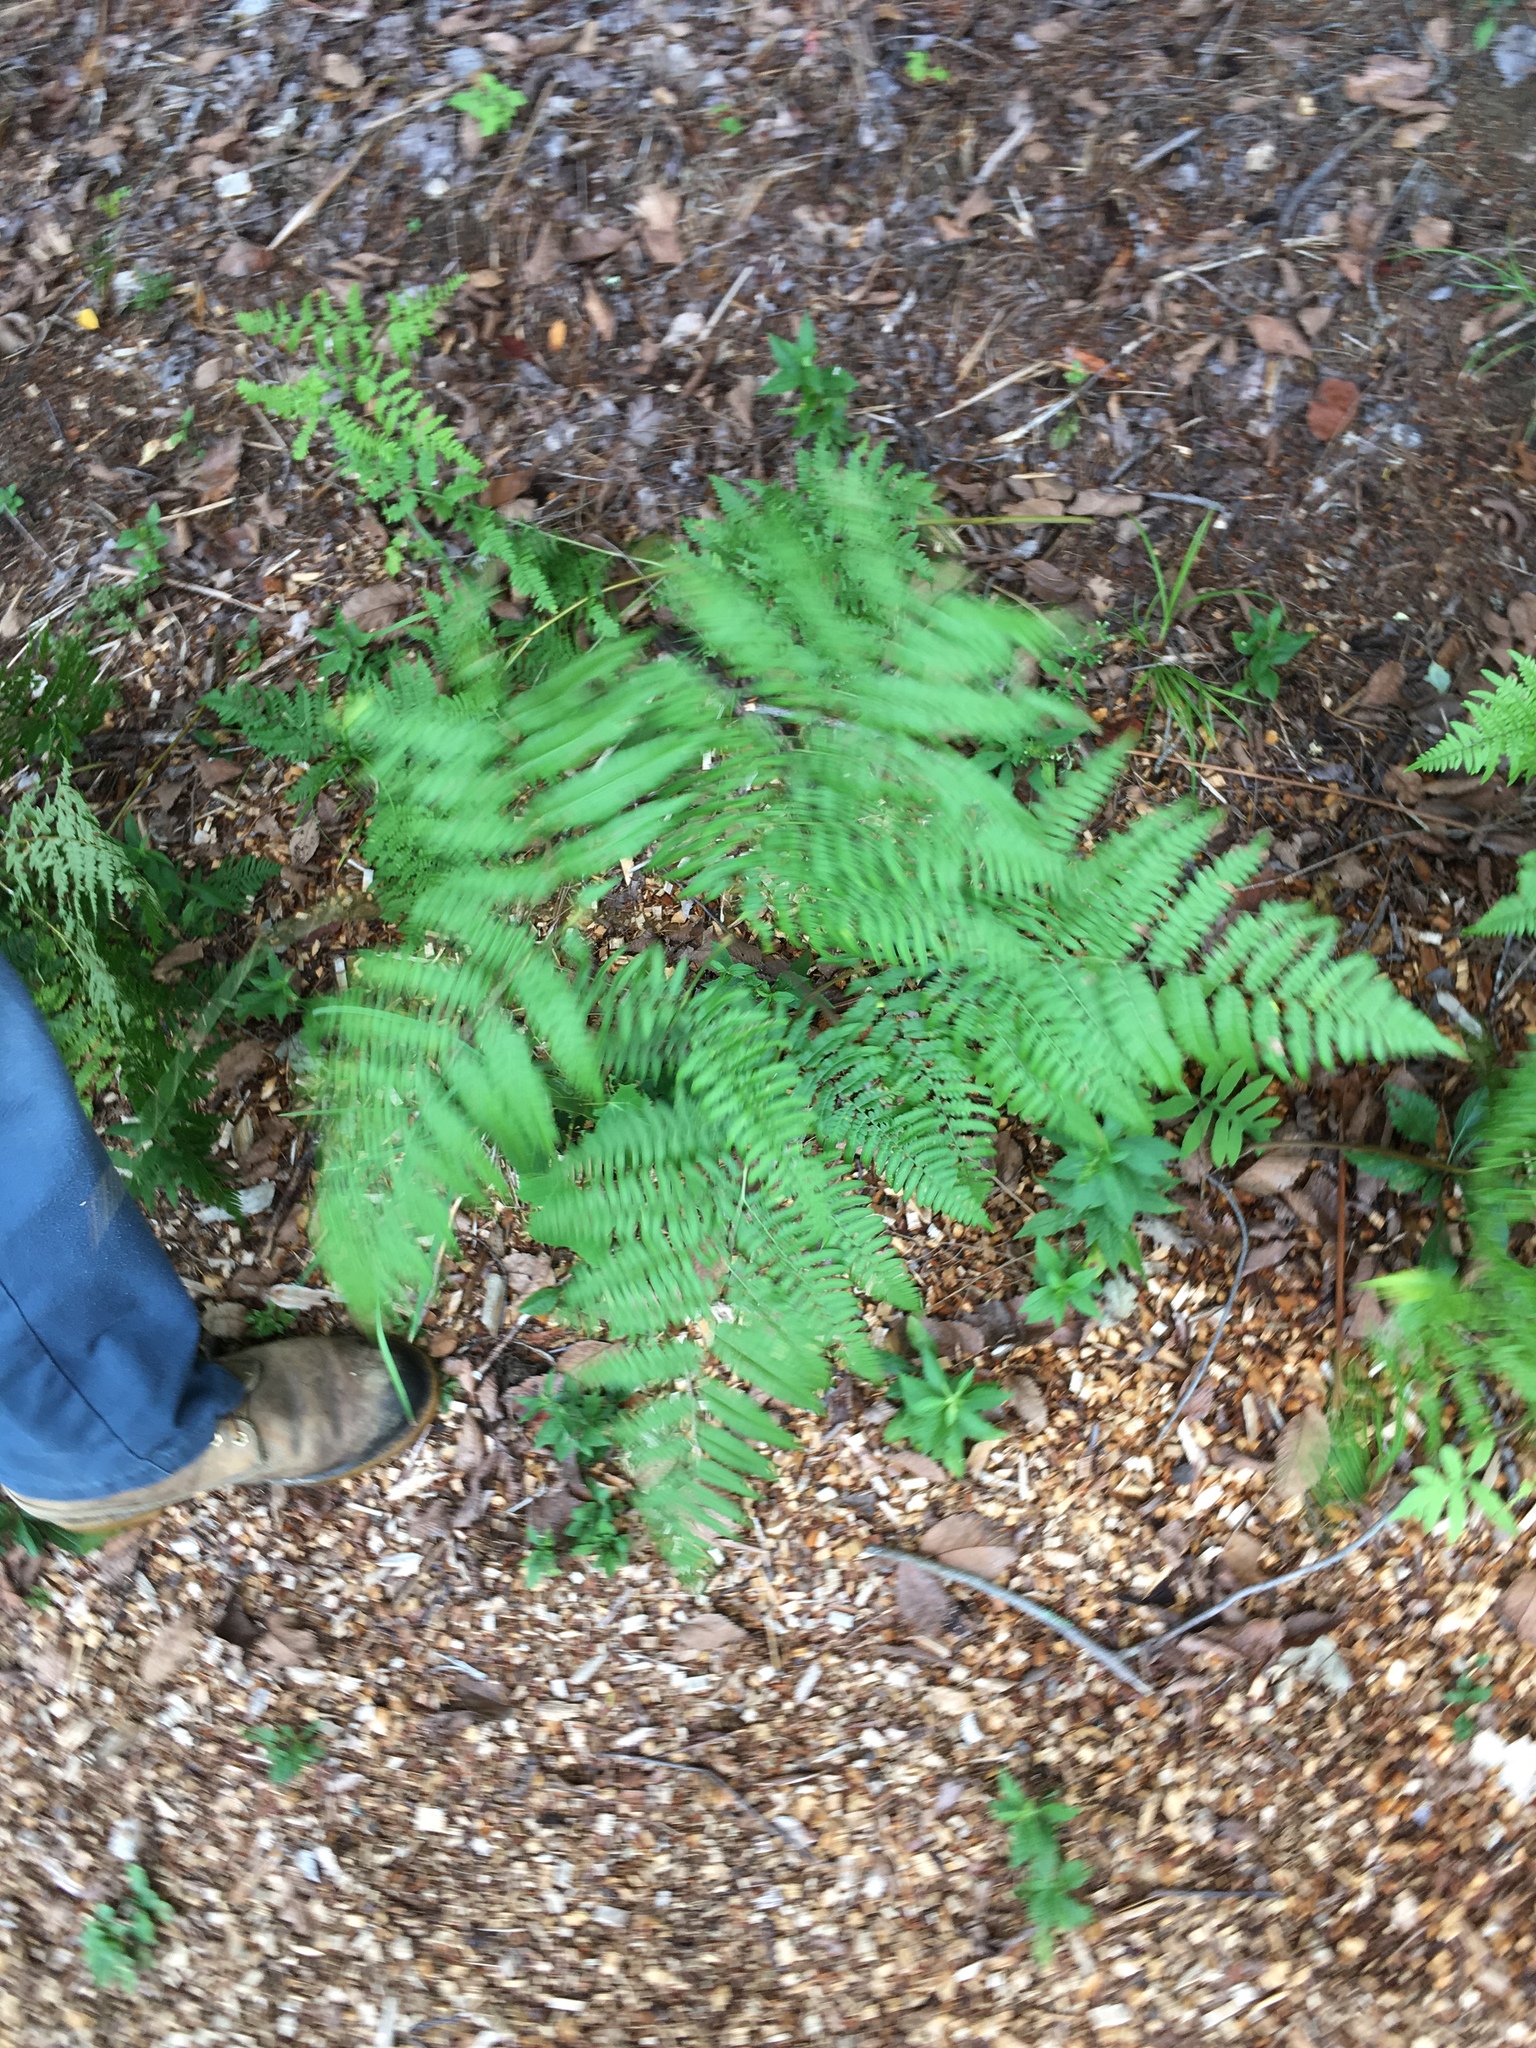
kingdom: Plantae
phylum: Tracheophyta
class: Polypodiopsida
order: Polypodiales
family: Dennstaedtiaceae
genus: Pteridium
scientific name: Pteridium aquilinum
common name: Bracken
